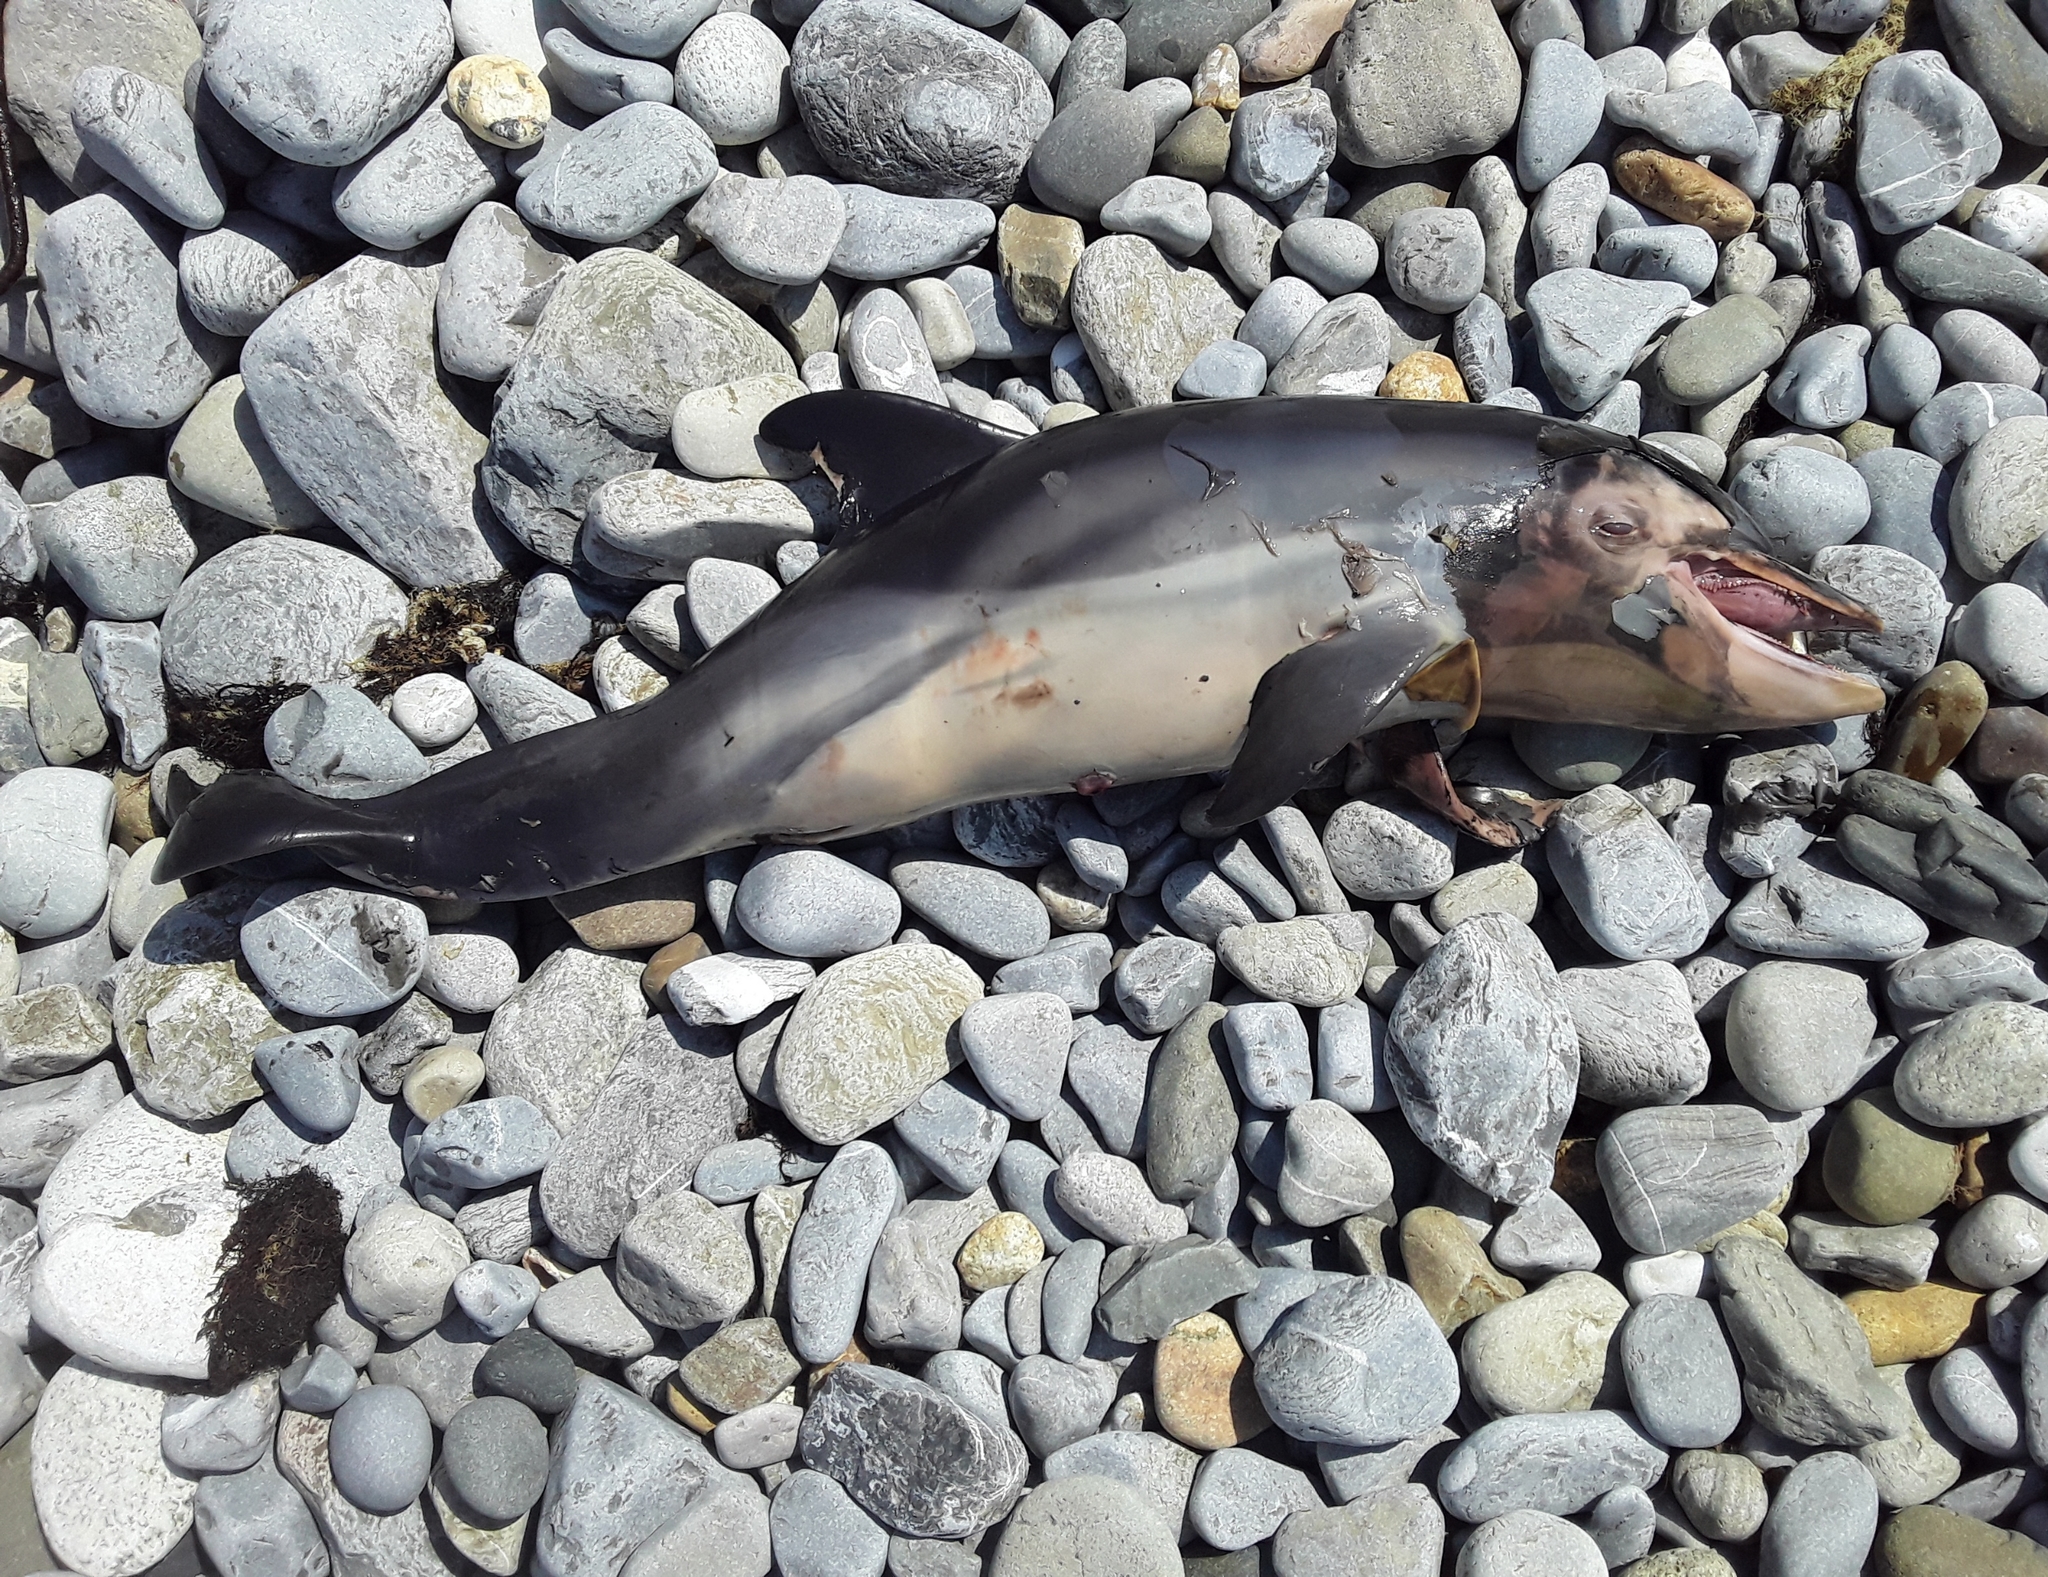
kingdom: Animalia
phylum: Chordata
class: Mammalia
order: Cetacea
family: Delphinidae
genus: Delphinus
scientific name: Delphinus delphis
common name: Common dolphin
